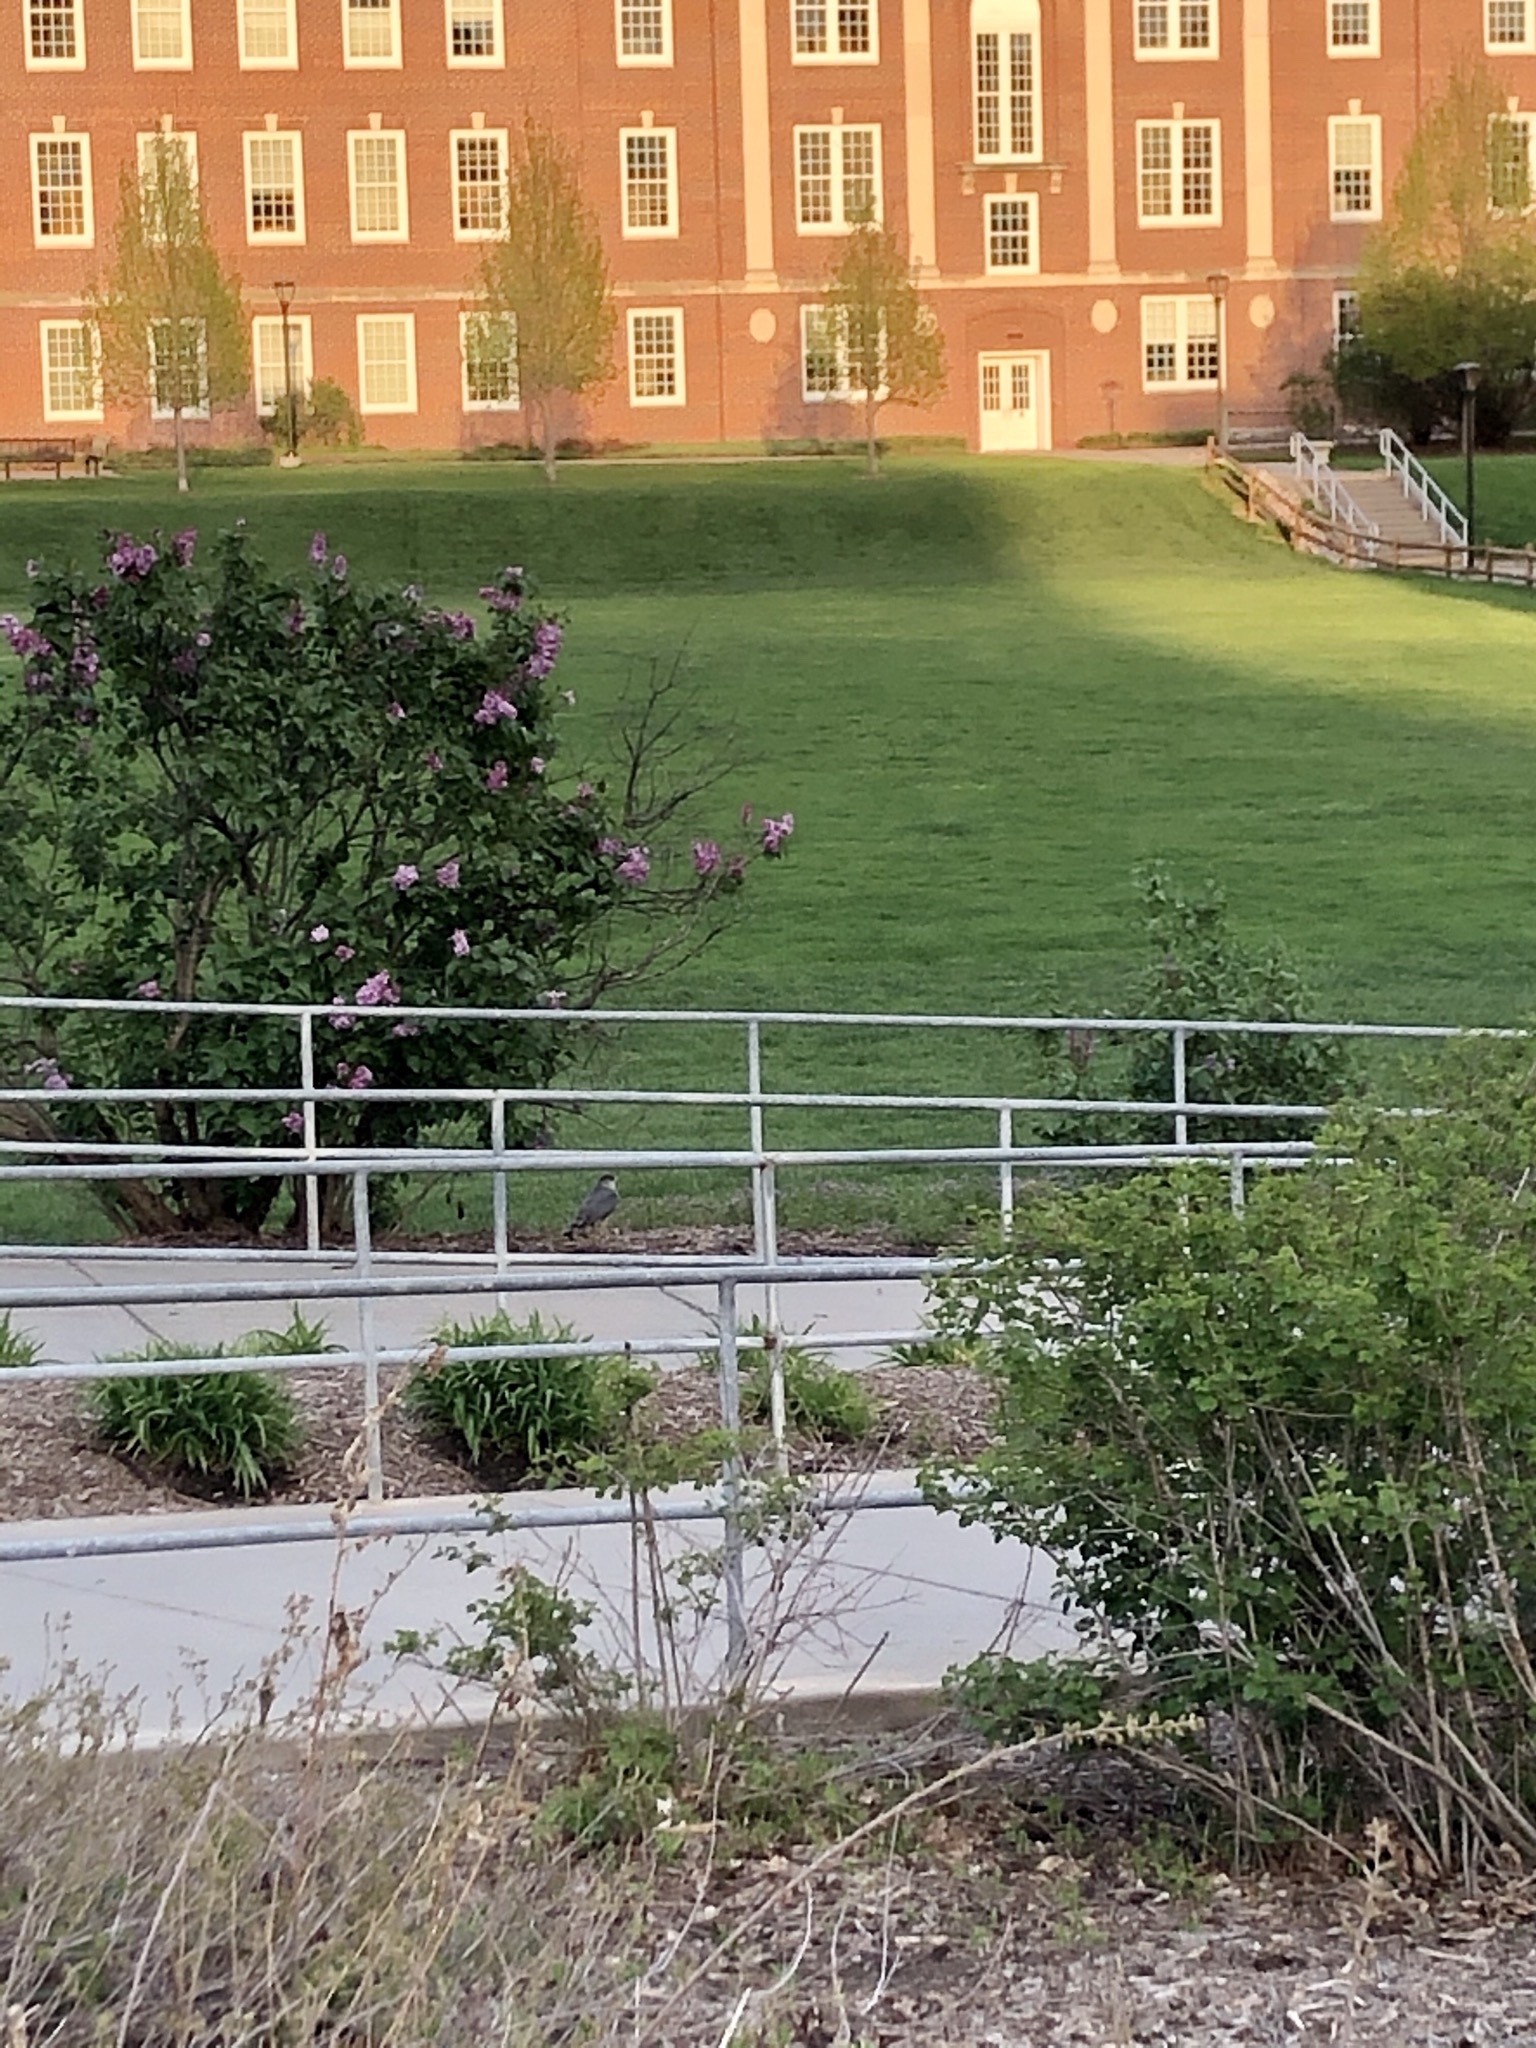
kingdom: Animalia
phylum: Chordata
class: Aves
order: Accipitriformes
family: Accipitridae
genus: Accipiter
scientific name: Accipiter cooperii
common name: Cooper's hawk
